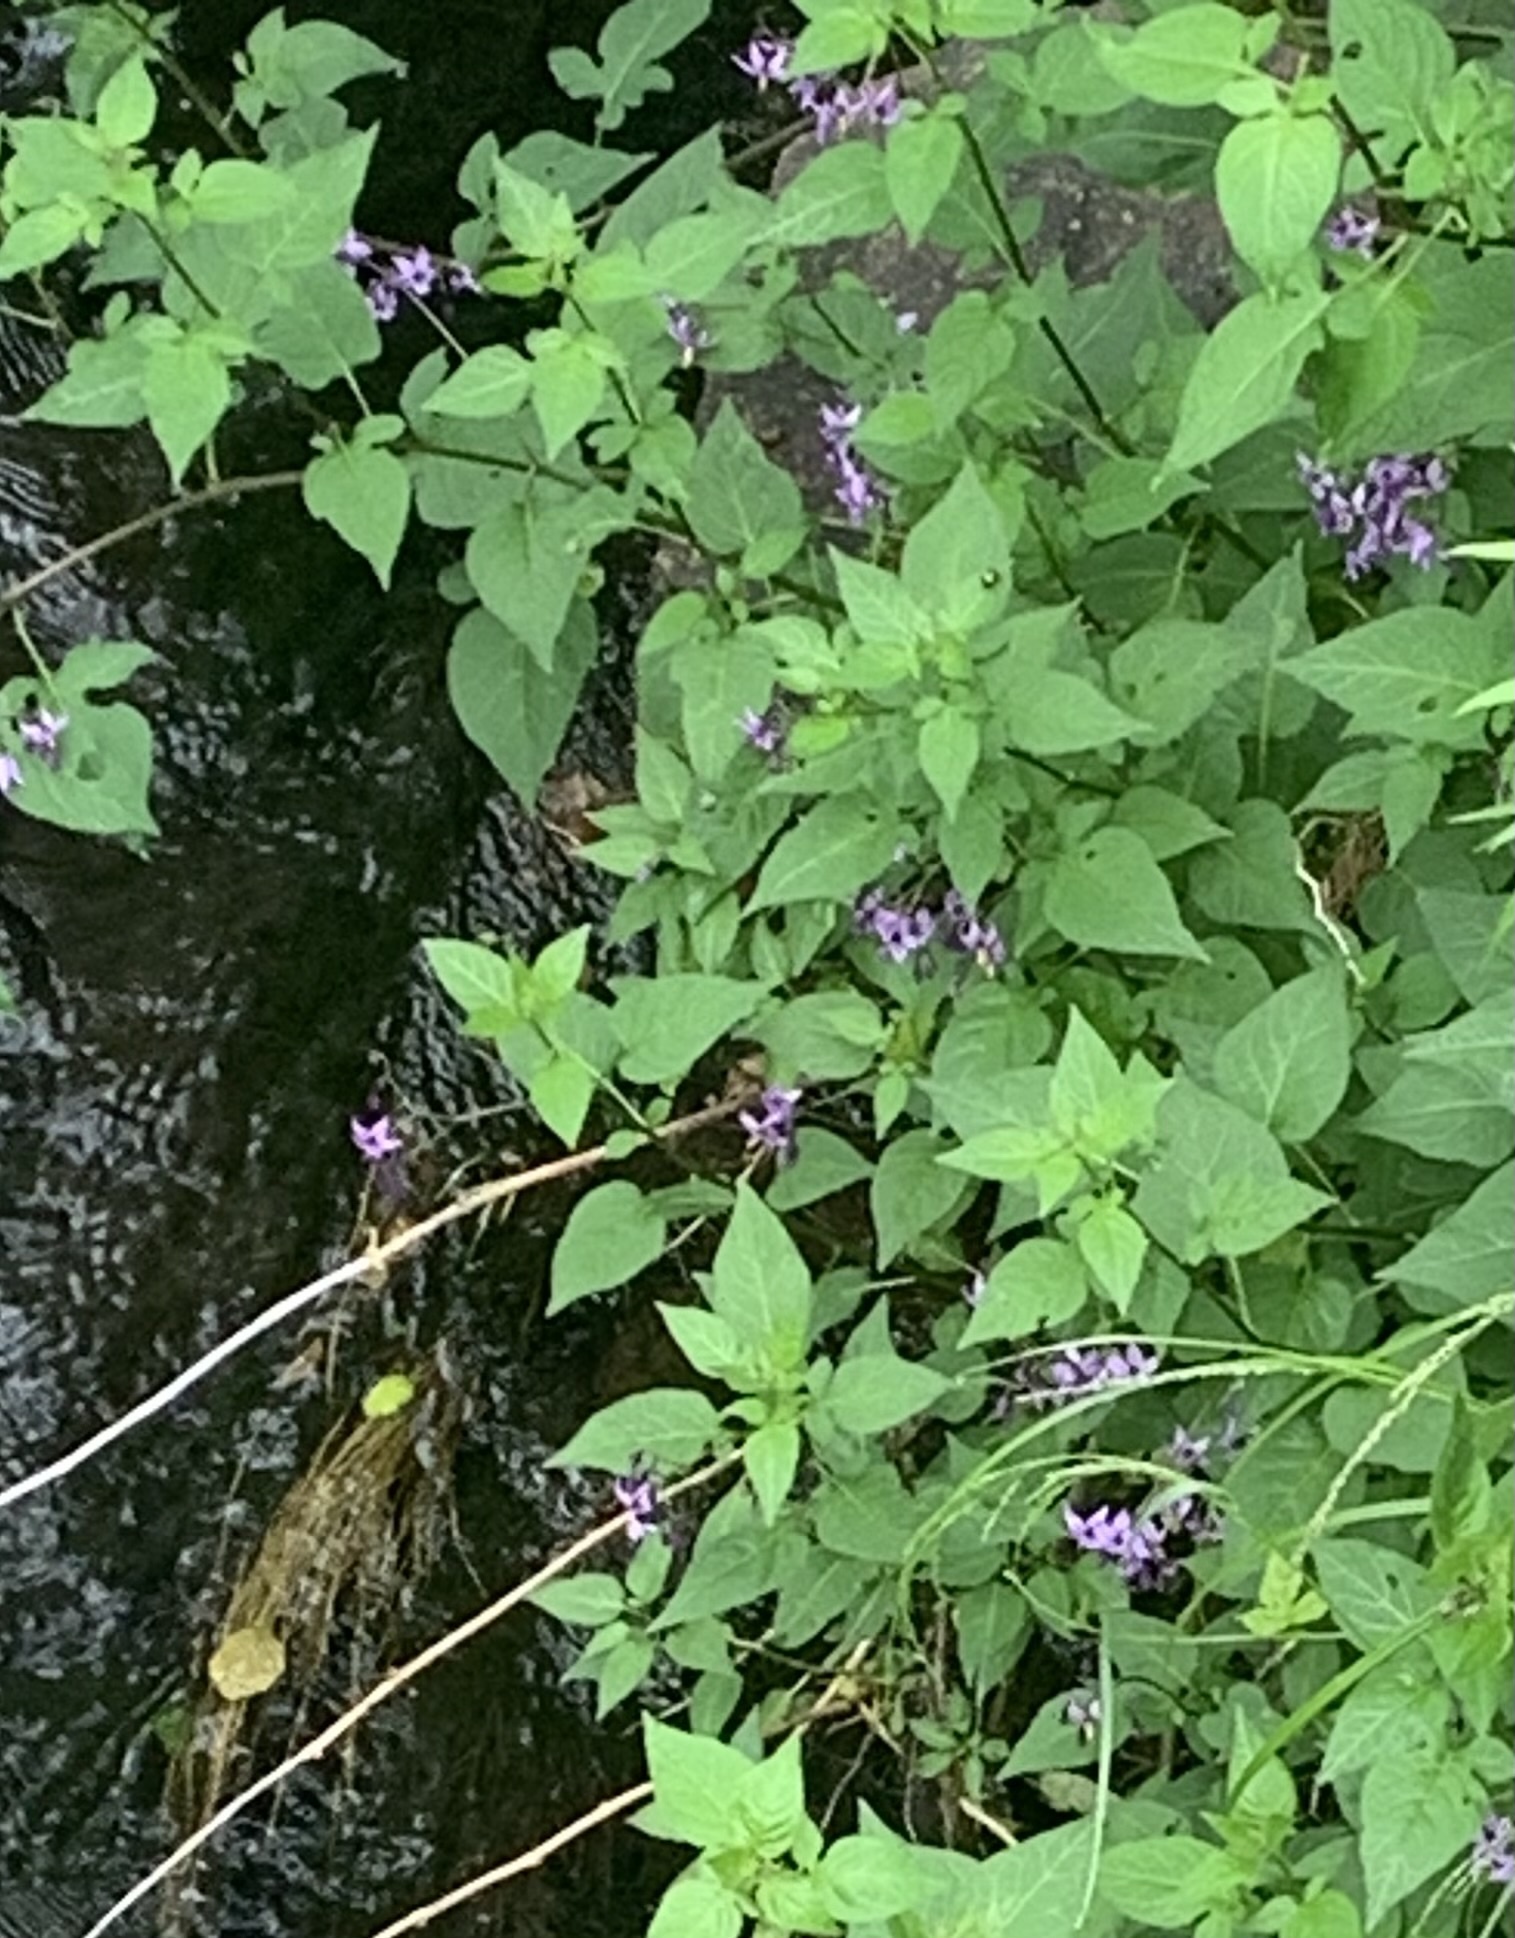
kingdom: Plantae
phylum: Tracheophyta
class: Magnoliopsida
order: Solanales
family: Solanaceae
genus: Solanum
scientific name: Solanum dulcamara
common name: Climbing nightshade
